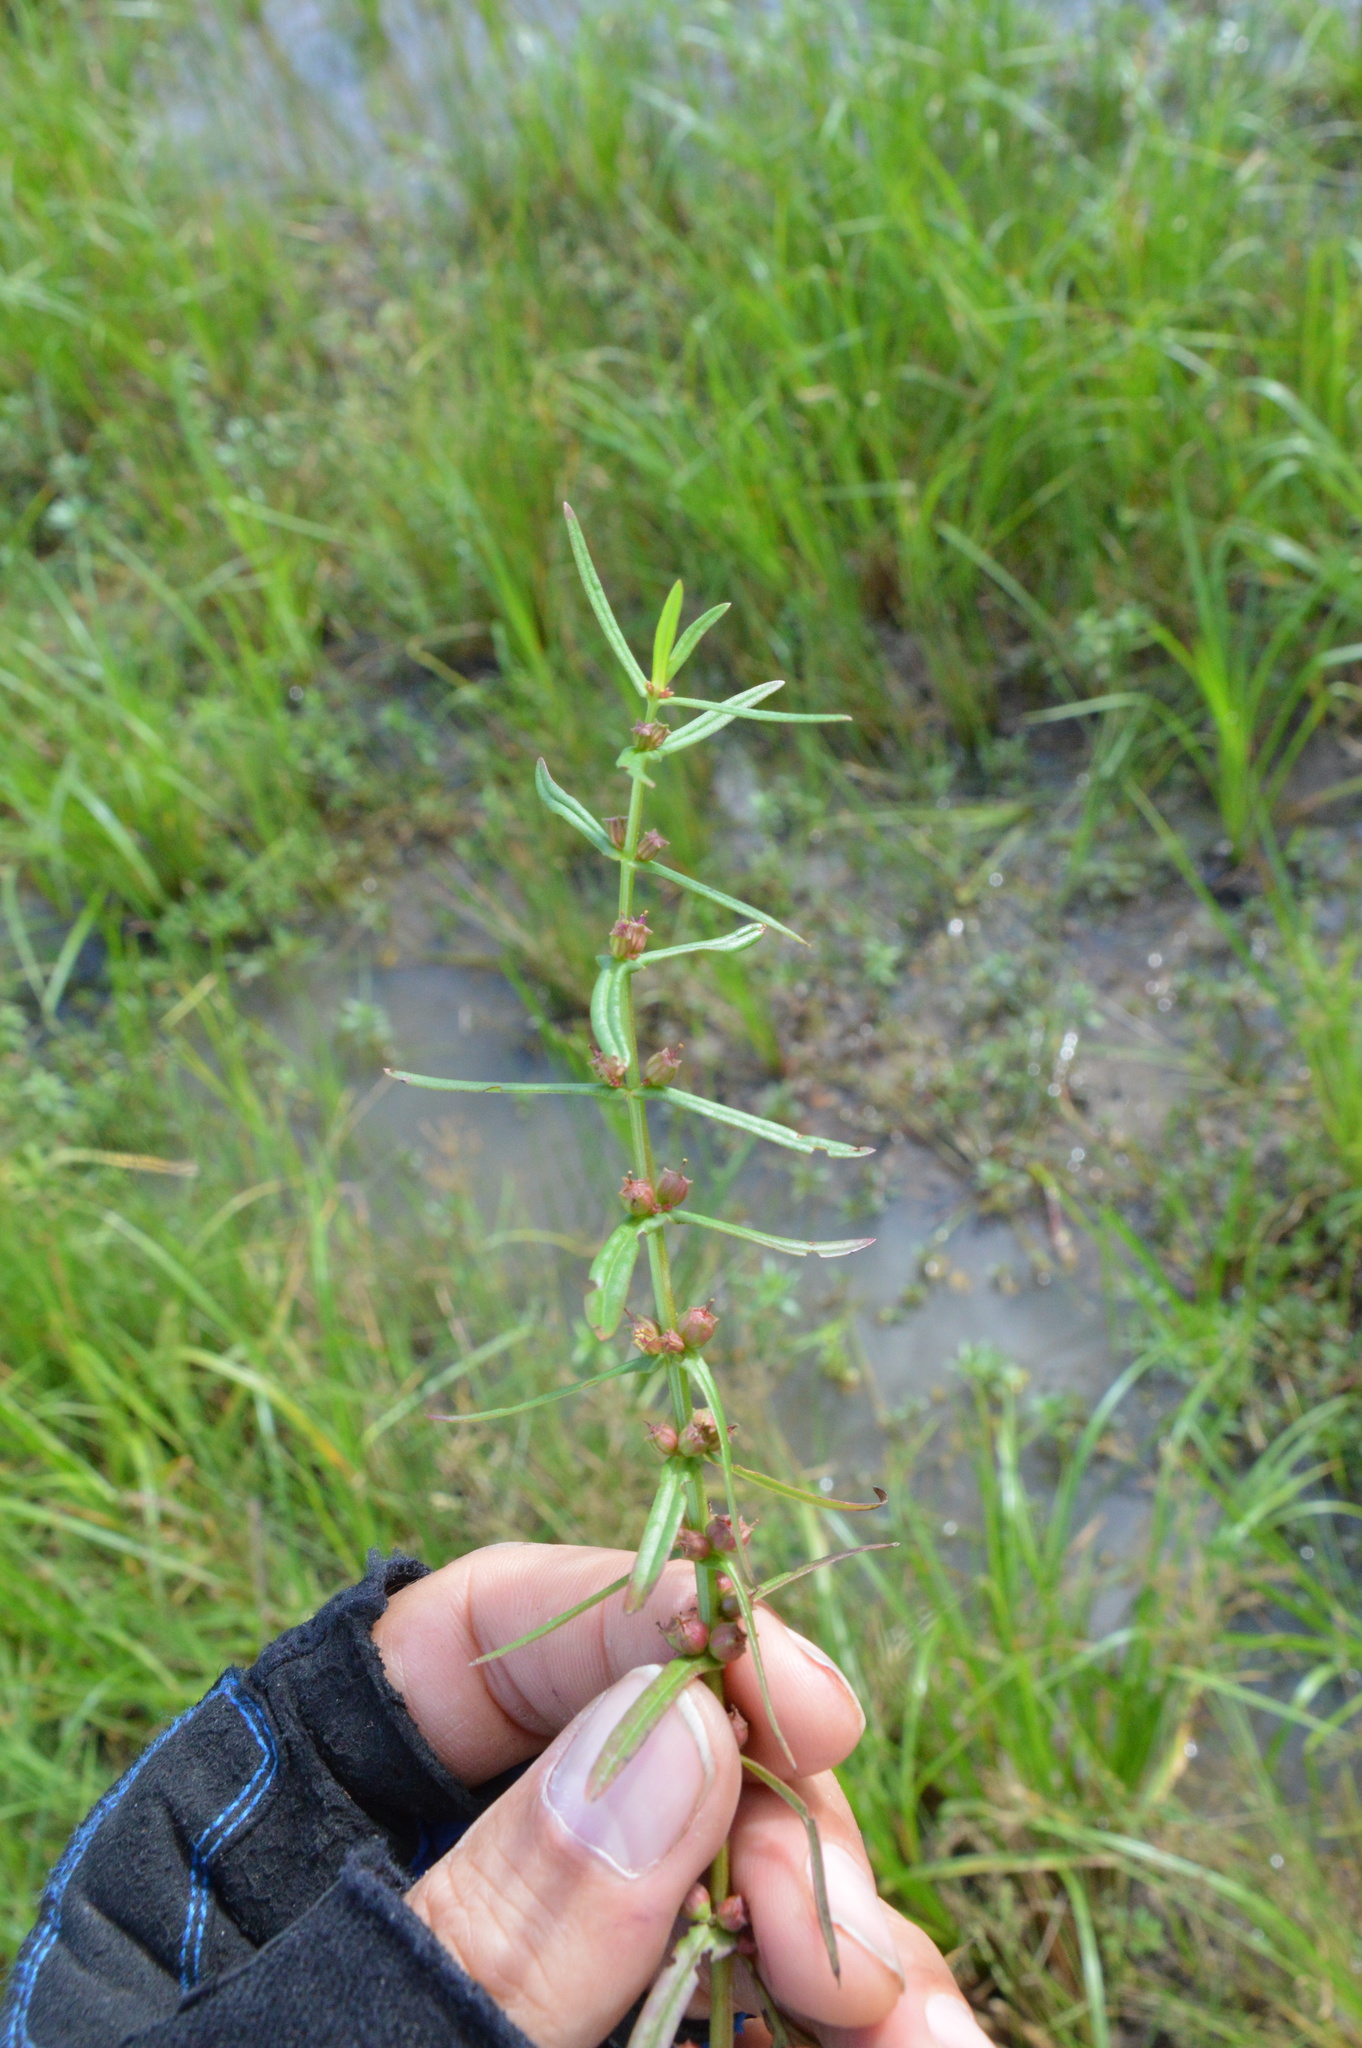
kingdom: Plantae
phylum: Tracheophyta
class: Magnoliopsida
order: Myrtales
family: Lythraceae
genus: Rotala
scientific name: Rotala ramosior
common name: Lowland rotala
